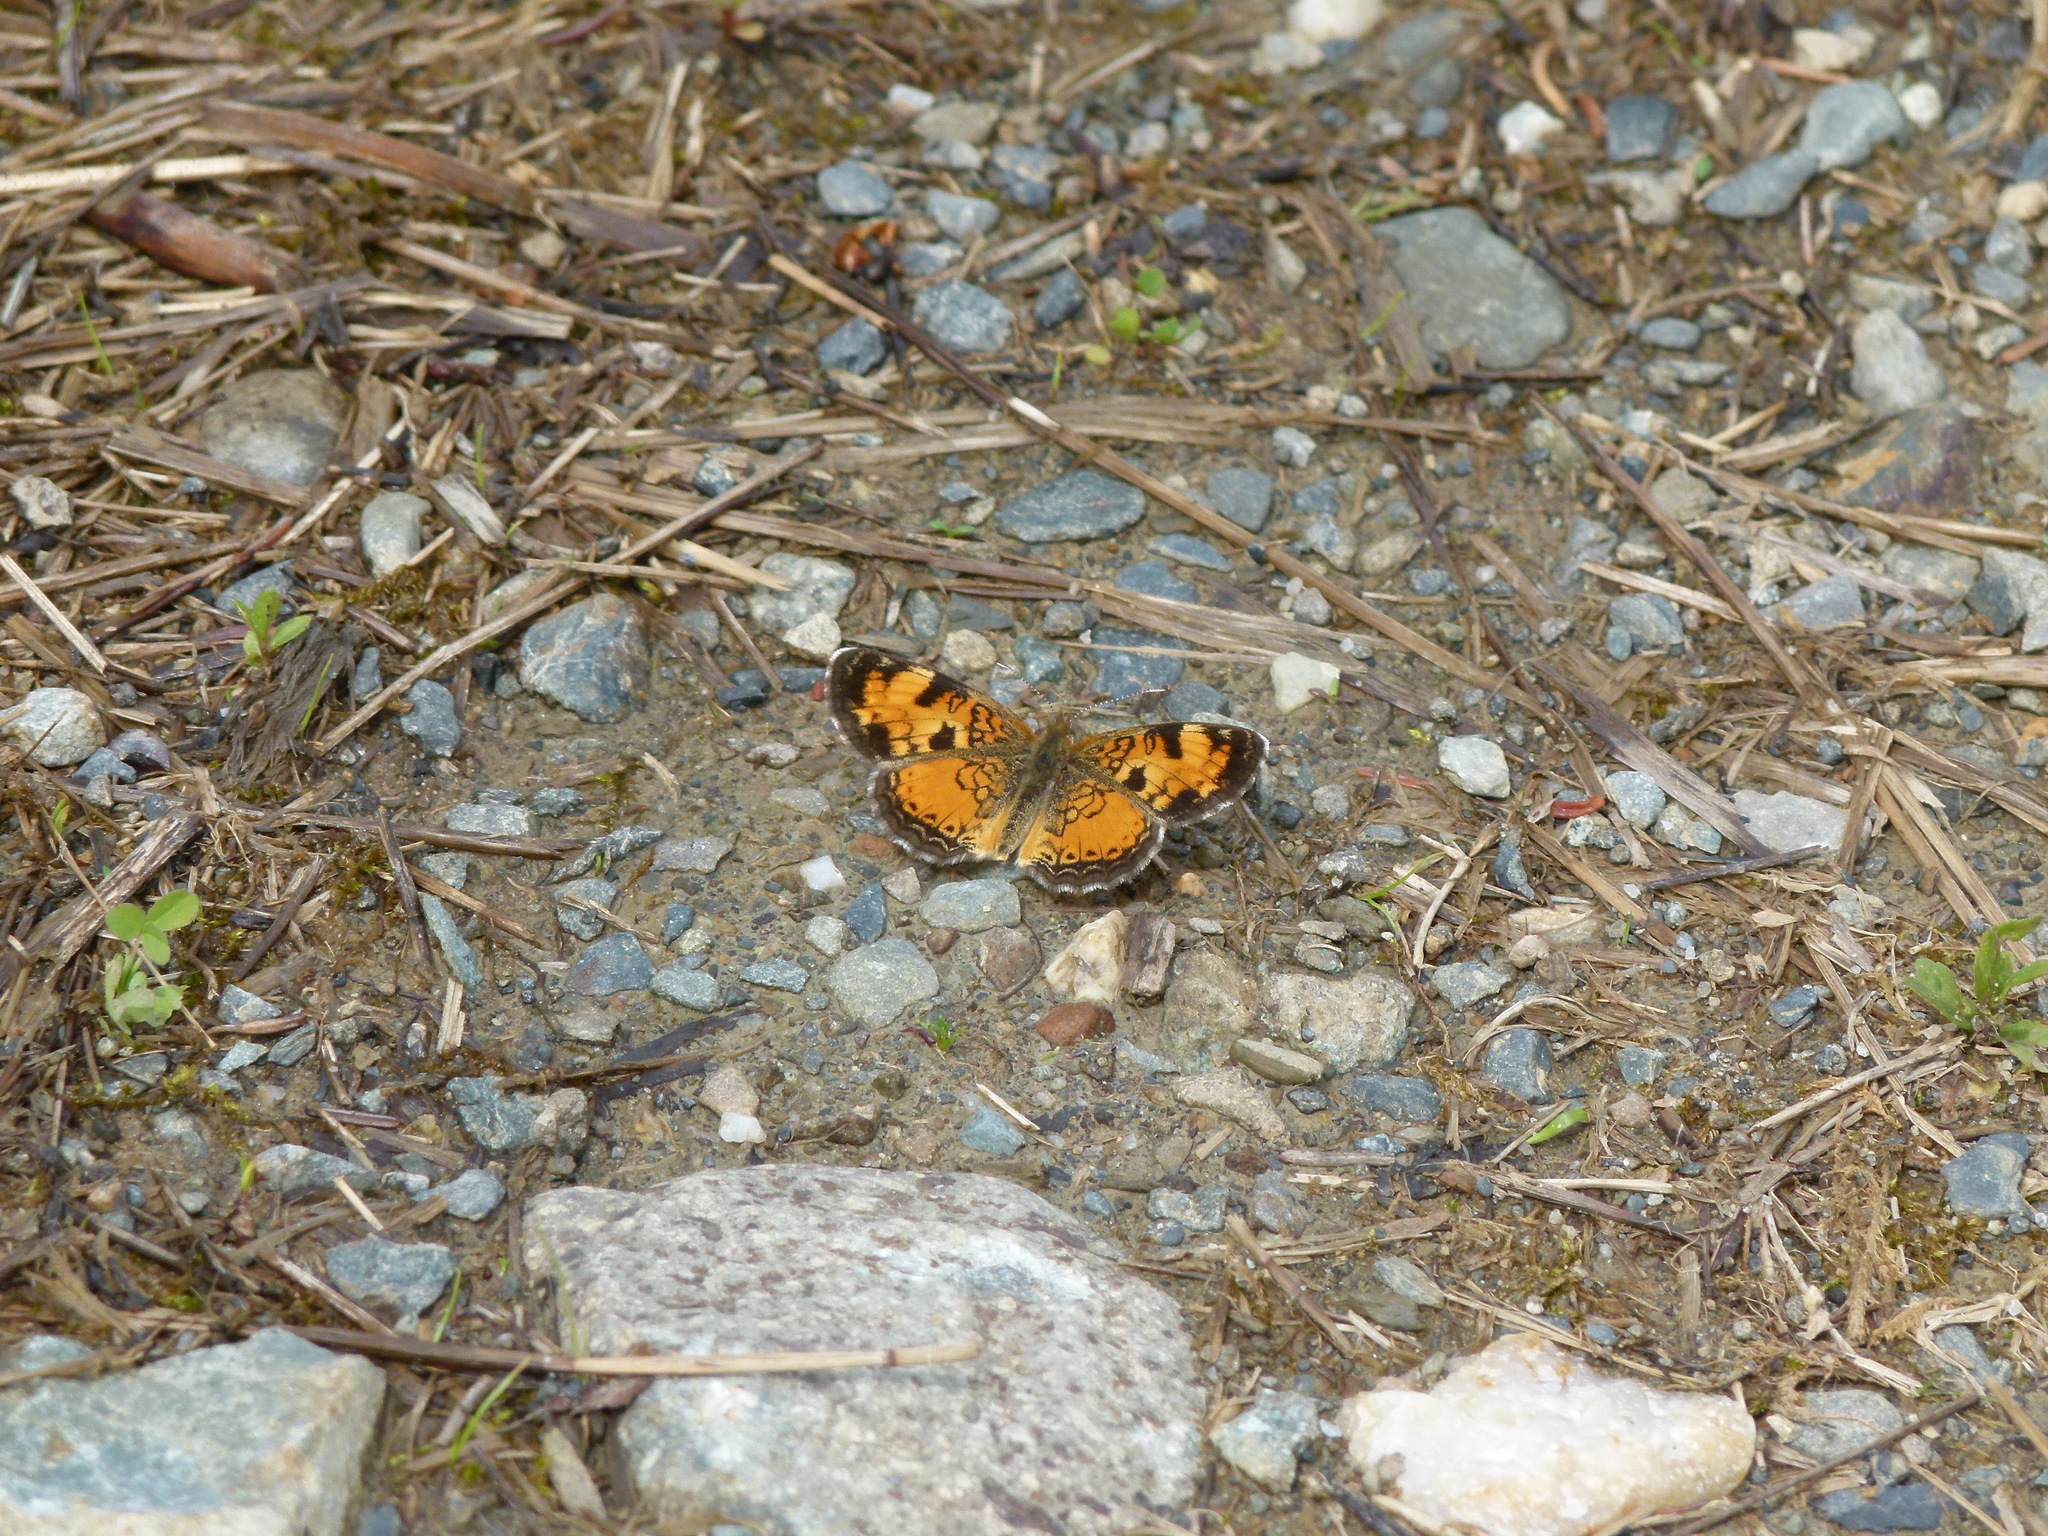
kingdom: Animalia
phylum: Arthropoda
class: Insecta
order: Lepidoptera
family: Nymphalidae
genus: Phyciodes
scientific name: Phyciodes tharos
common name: Pearl crescent
